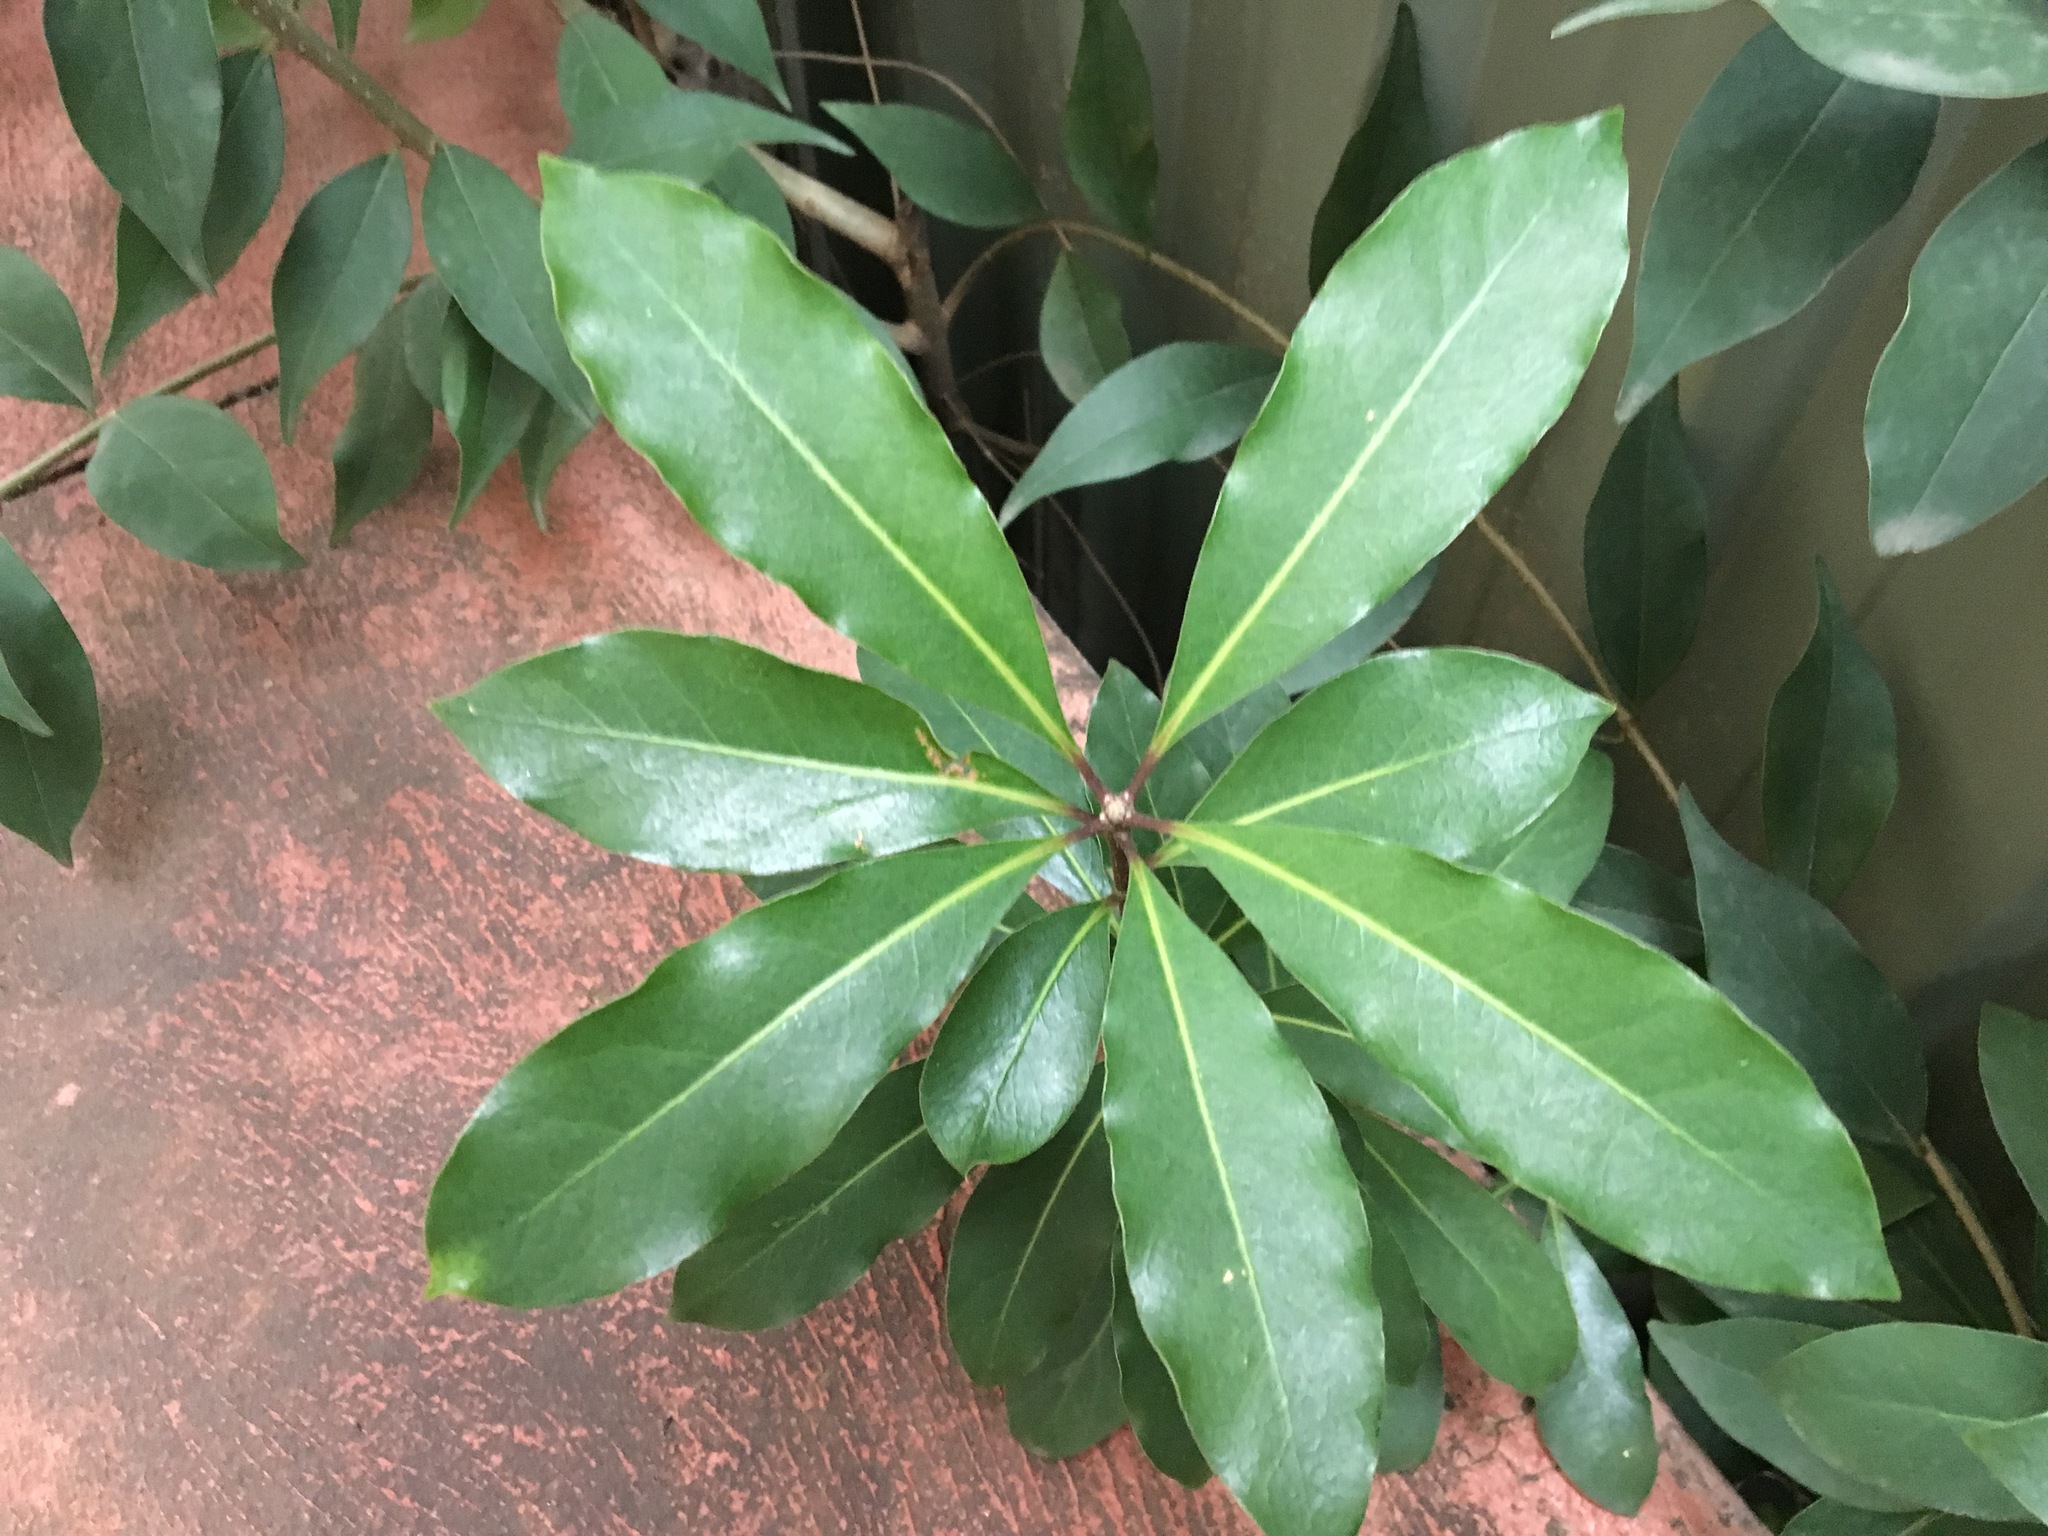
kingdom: Plantae
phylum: Tracheophyta
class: Magnoliopsida
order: Apiales
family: Pittosporaceae
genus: Pittosporum
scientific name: Pittosporum undulatum
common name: Australian cheesewood
